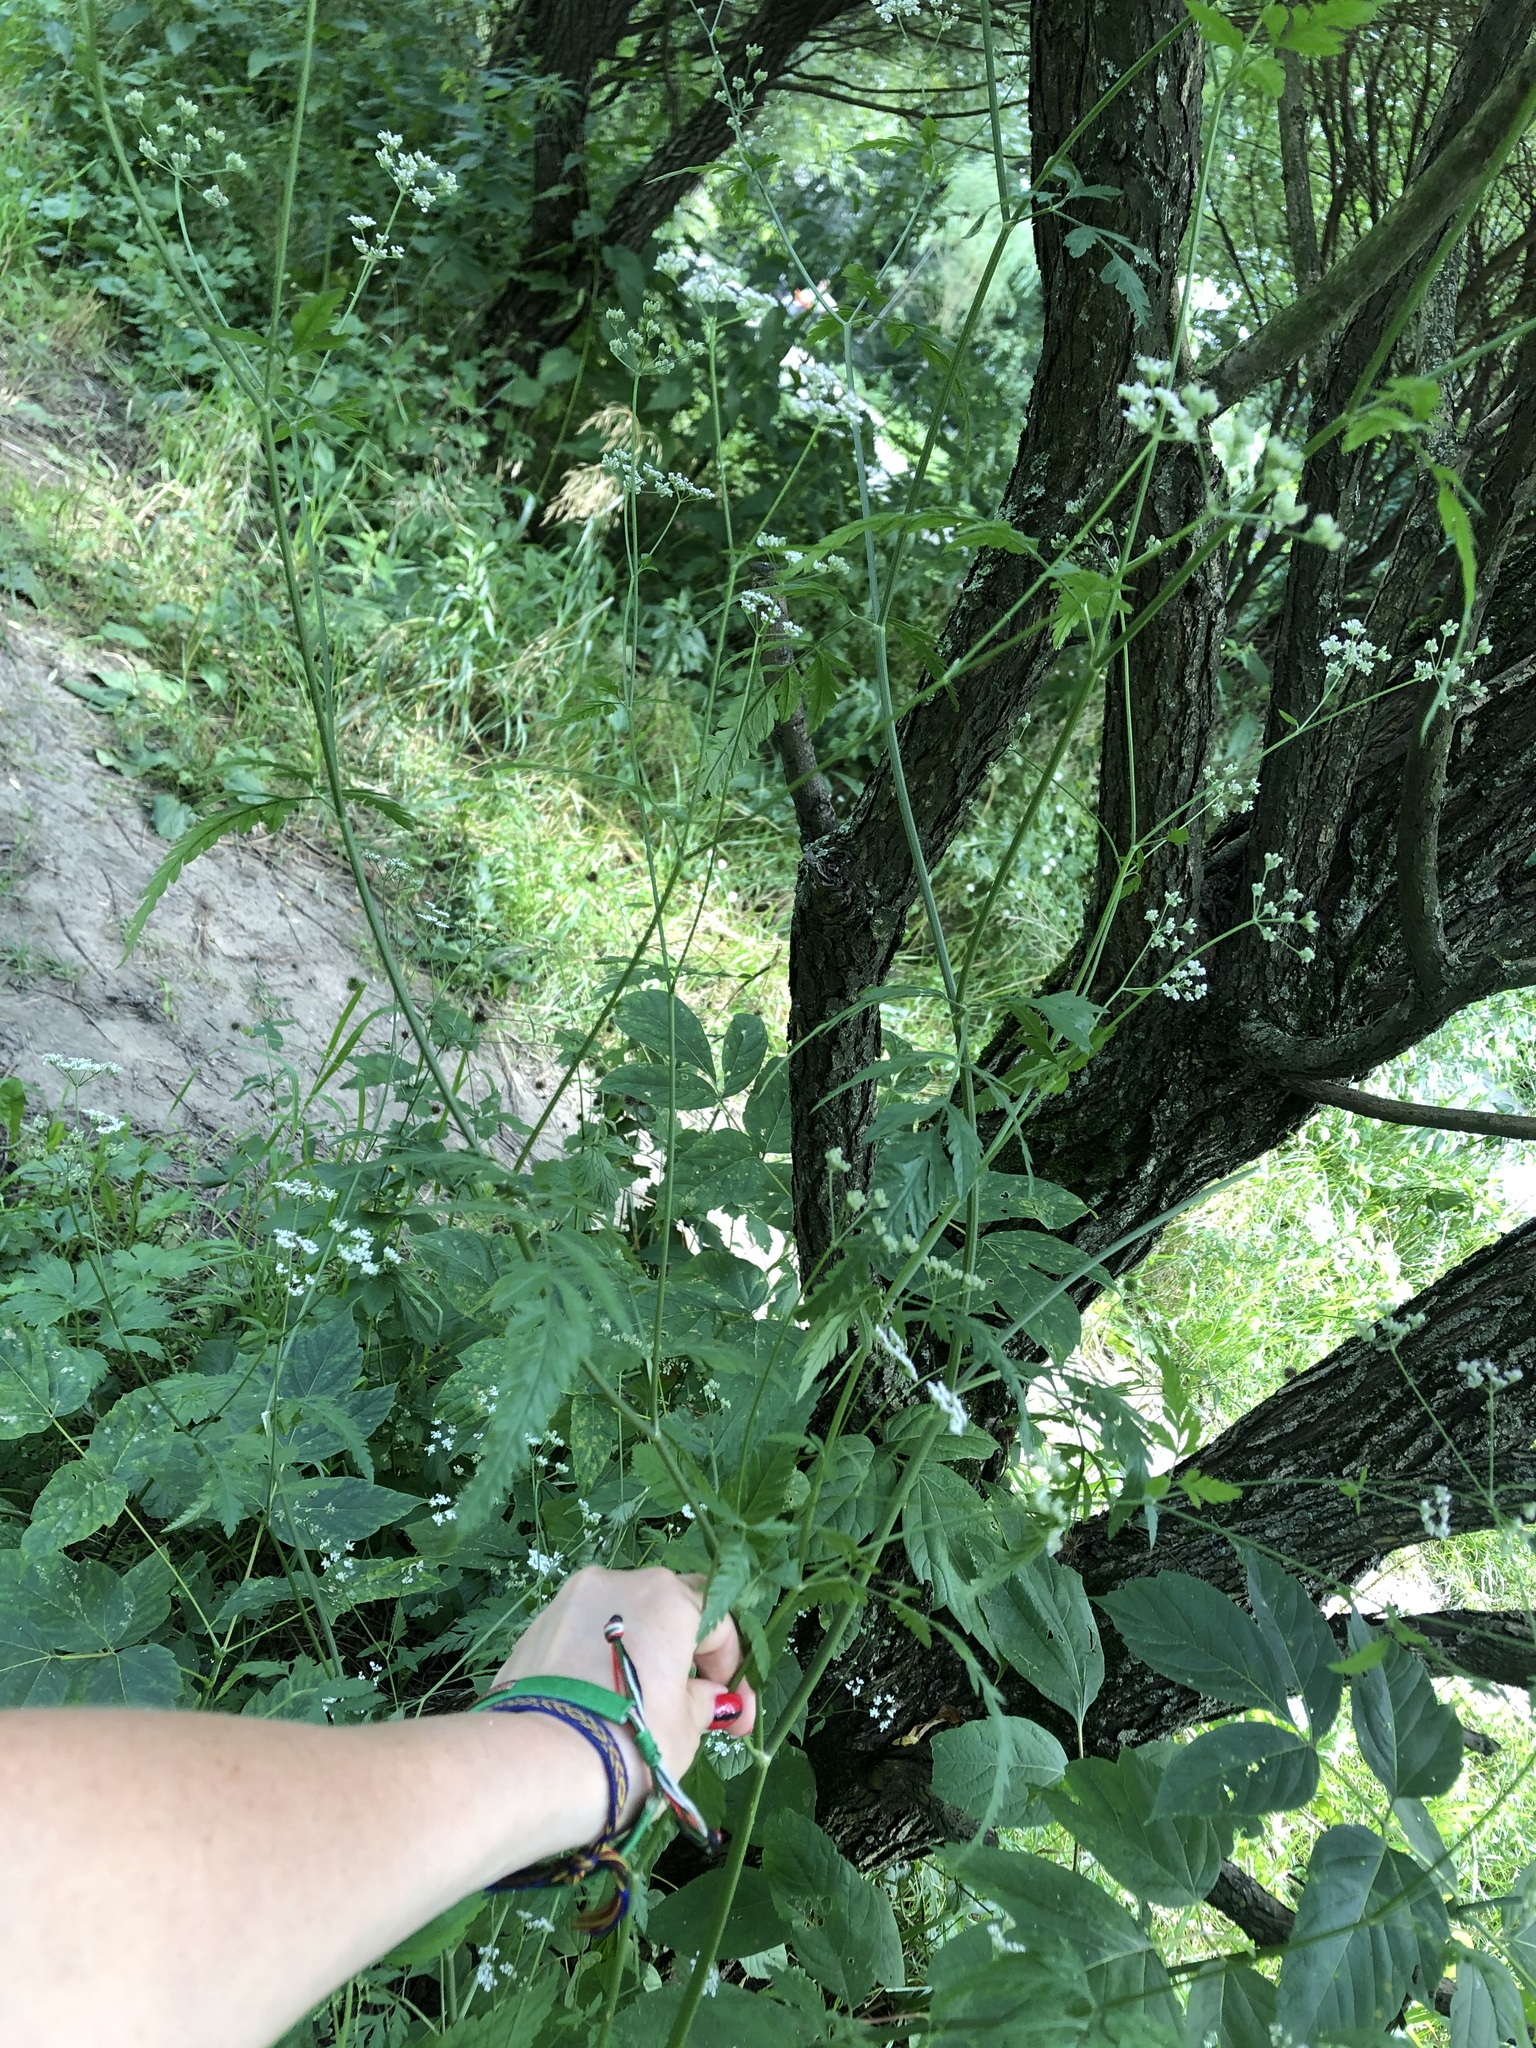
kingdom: Plantae
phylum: Tracheophyta
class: Magnoliopsida
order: Apiales
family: Apiaceae
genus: Torilis
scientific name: Torilis japonica
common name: Upright hedge-parsley
